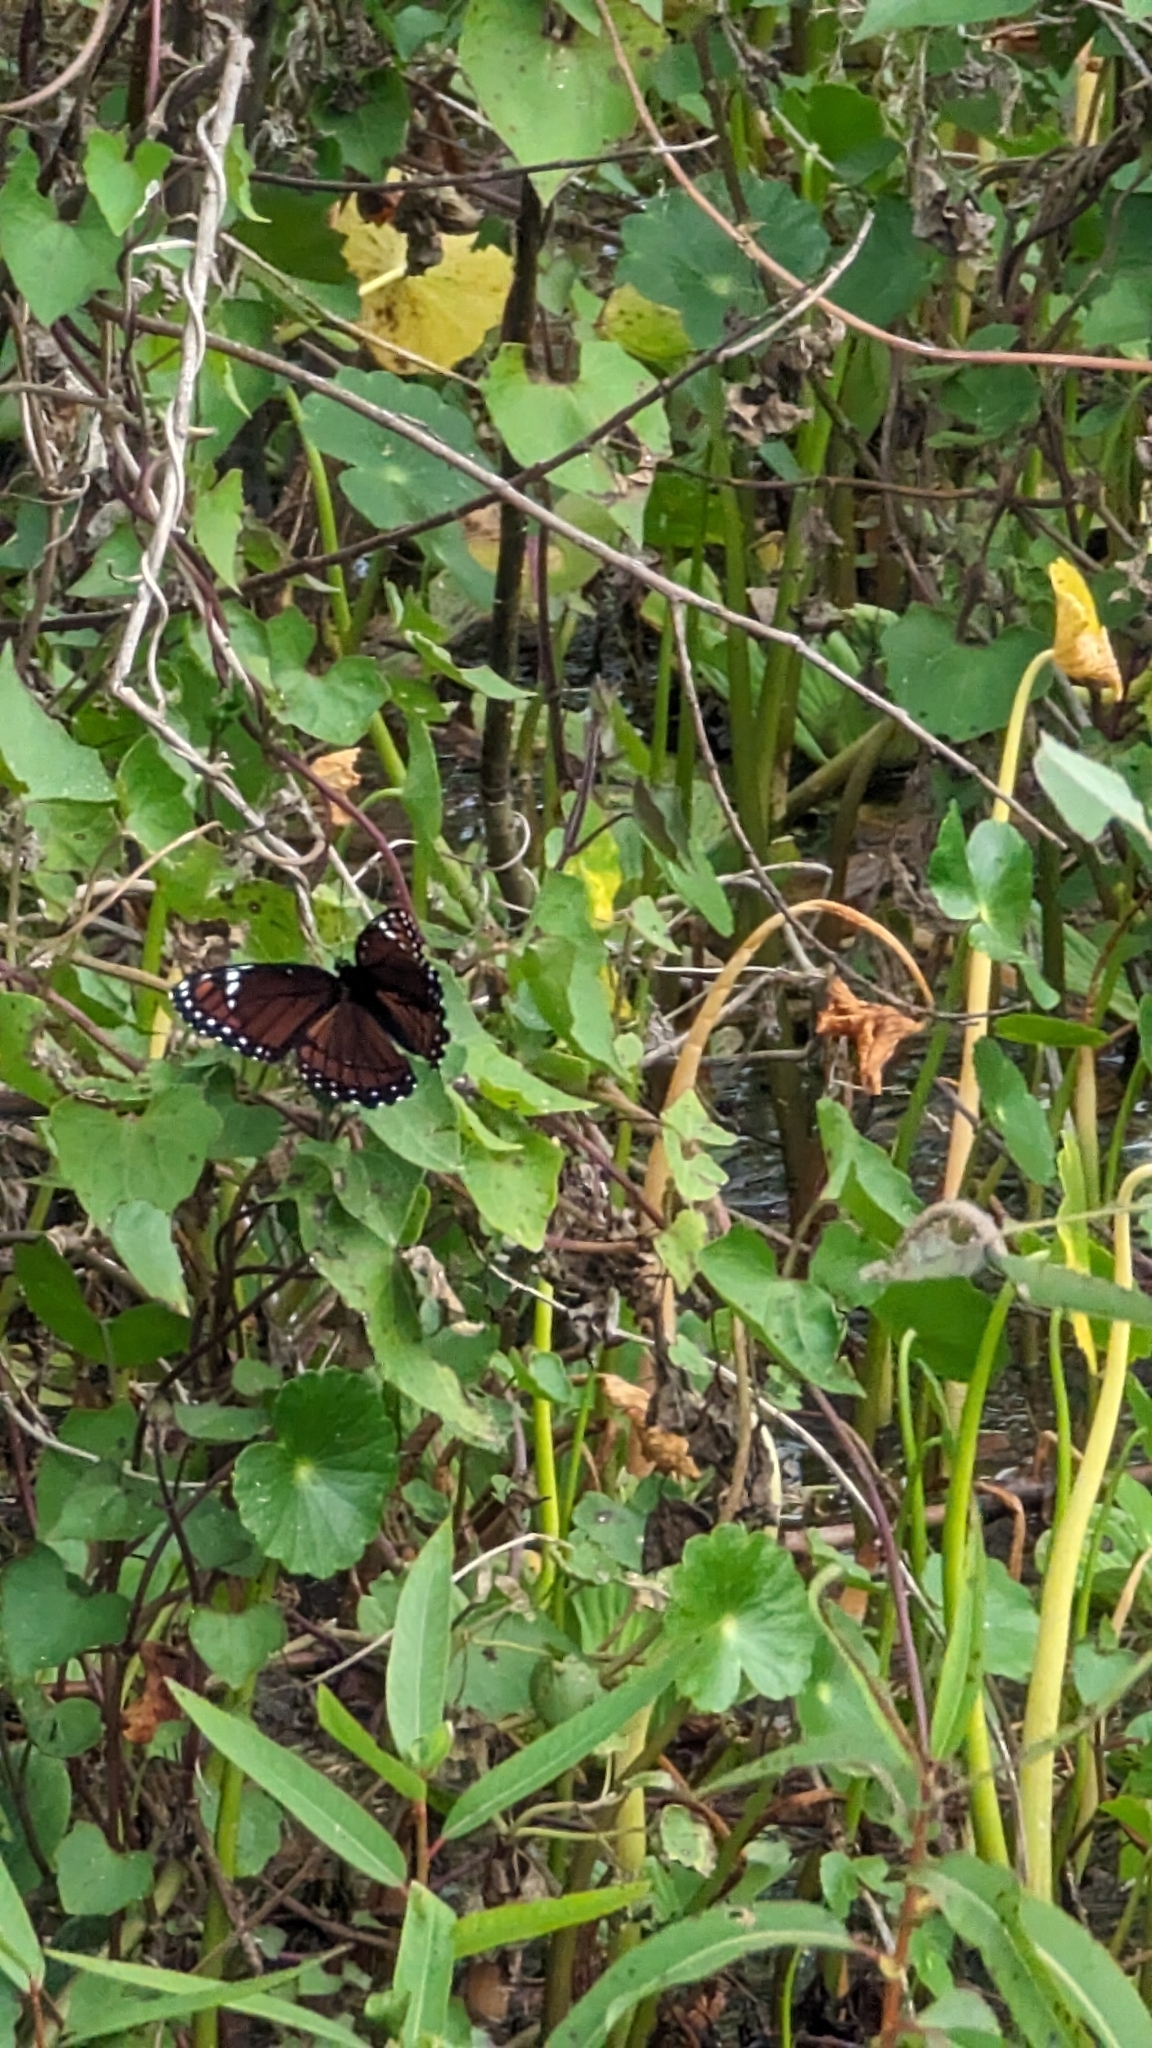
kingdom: Animalia
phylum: Arthropoda
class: Insecta
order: Lepidoptera
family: Nymphalidae
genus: Limenitis
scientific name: Limenitis archippus
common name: Viceroy
